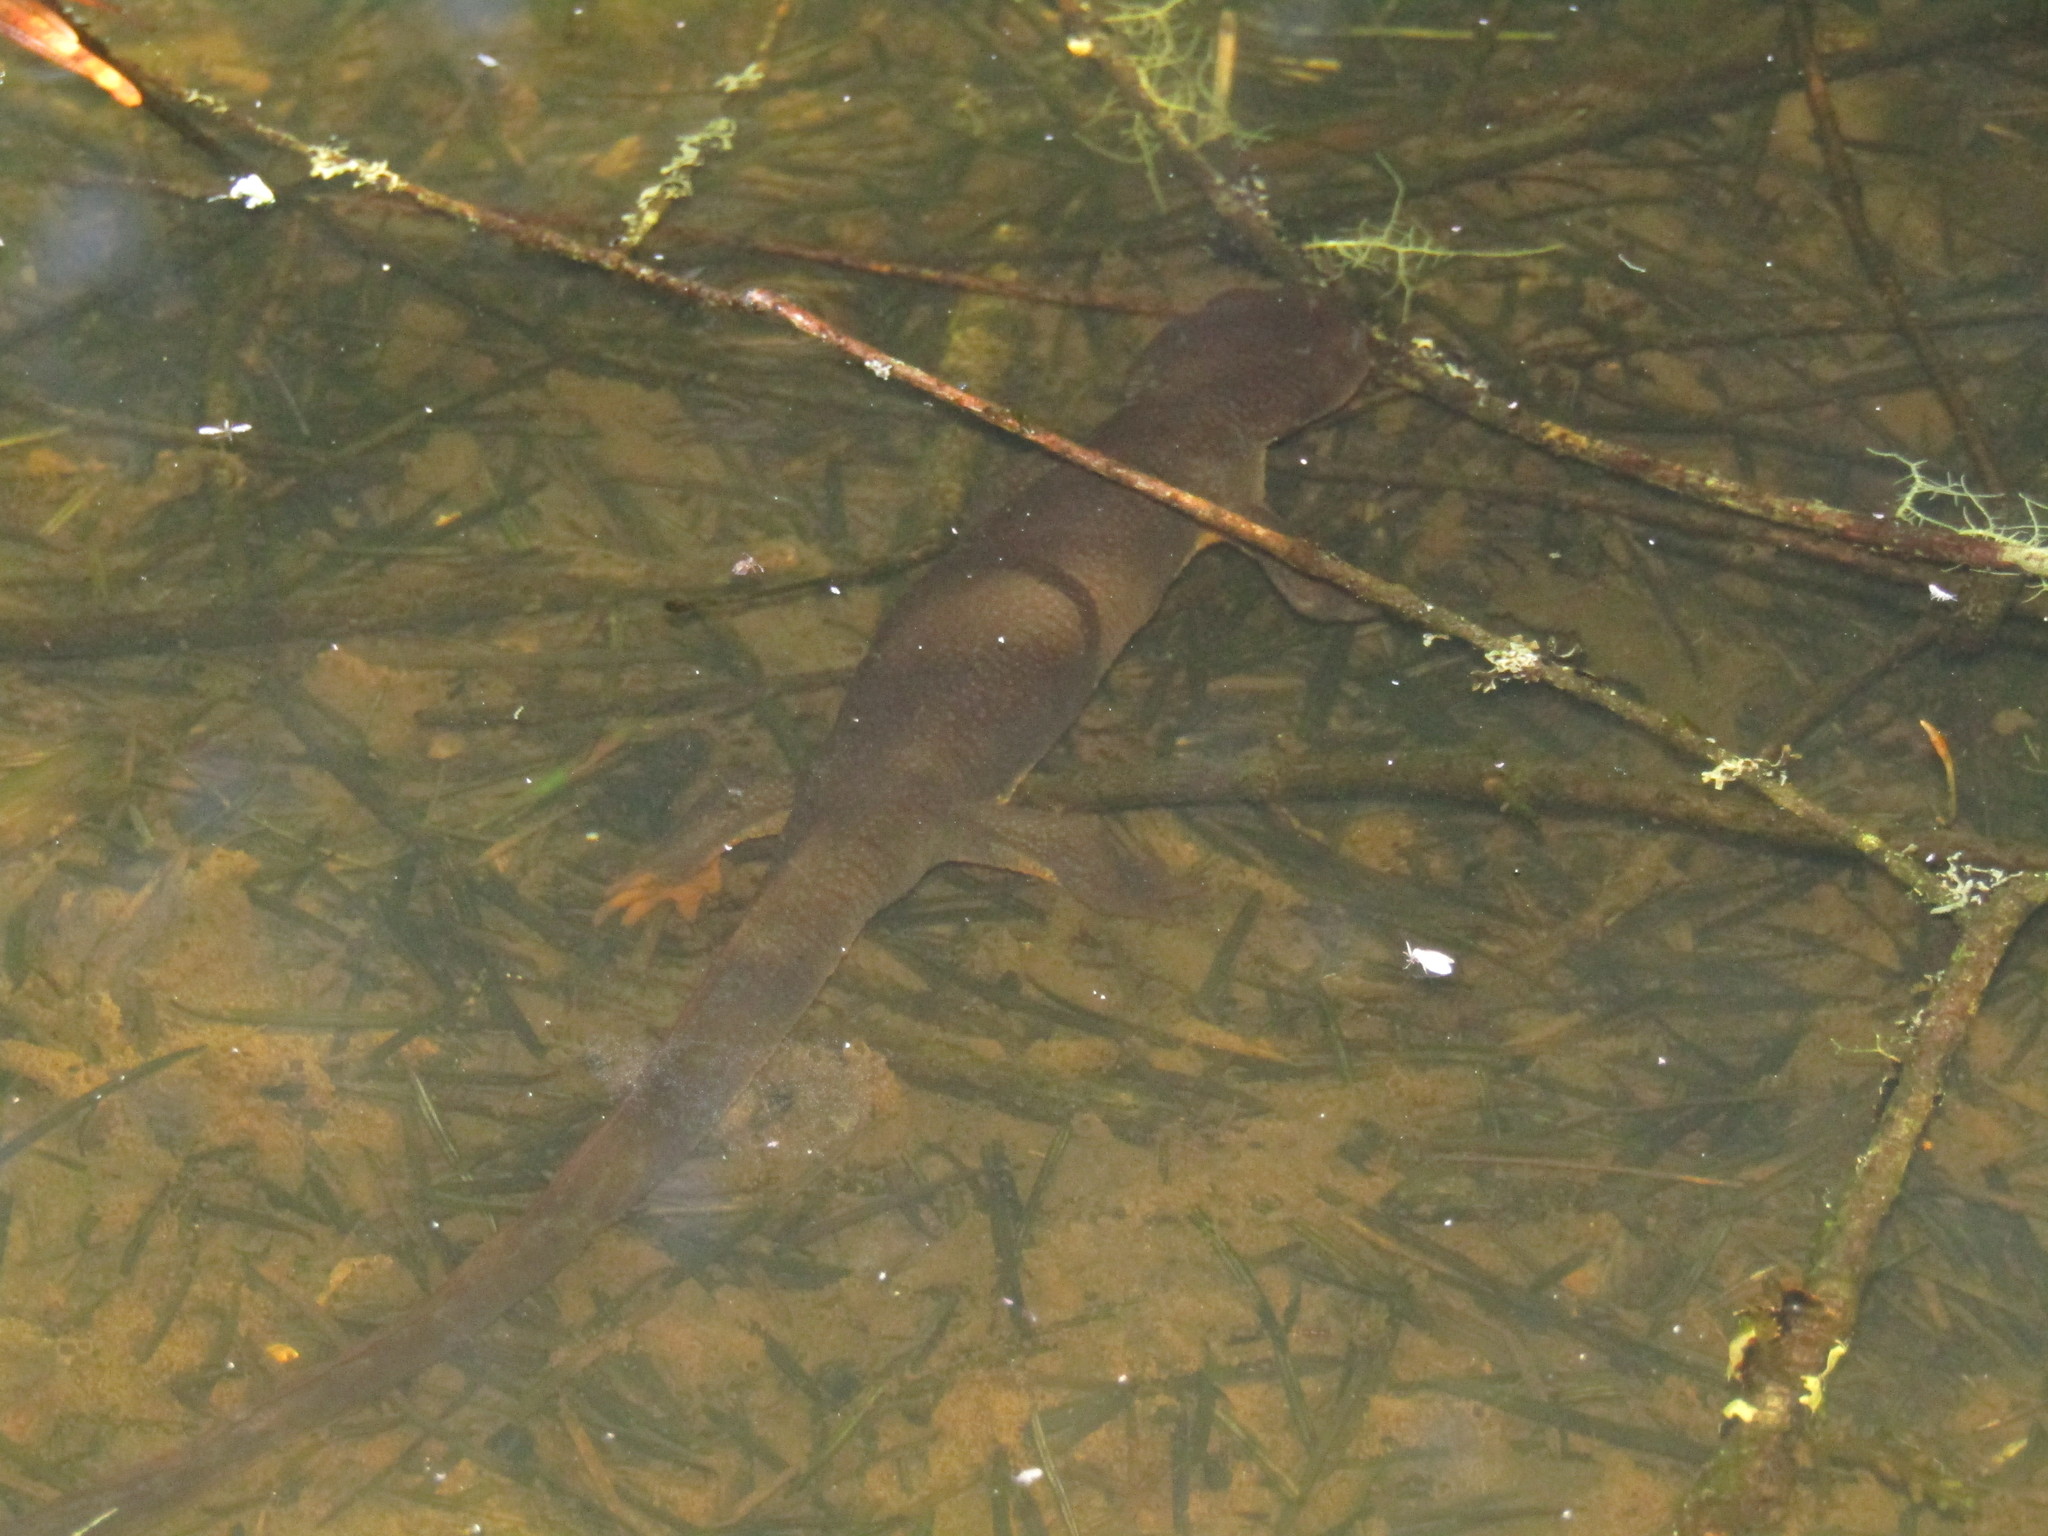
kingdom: Animalia
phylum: Chordata
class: Amphibia
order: Caudata
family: Salamandridae
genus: Taricha
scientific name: Taricha granulosa
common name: Roughskin newt
